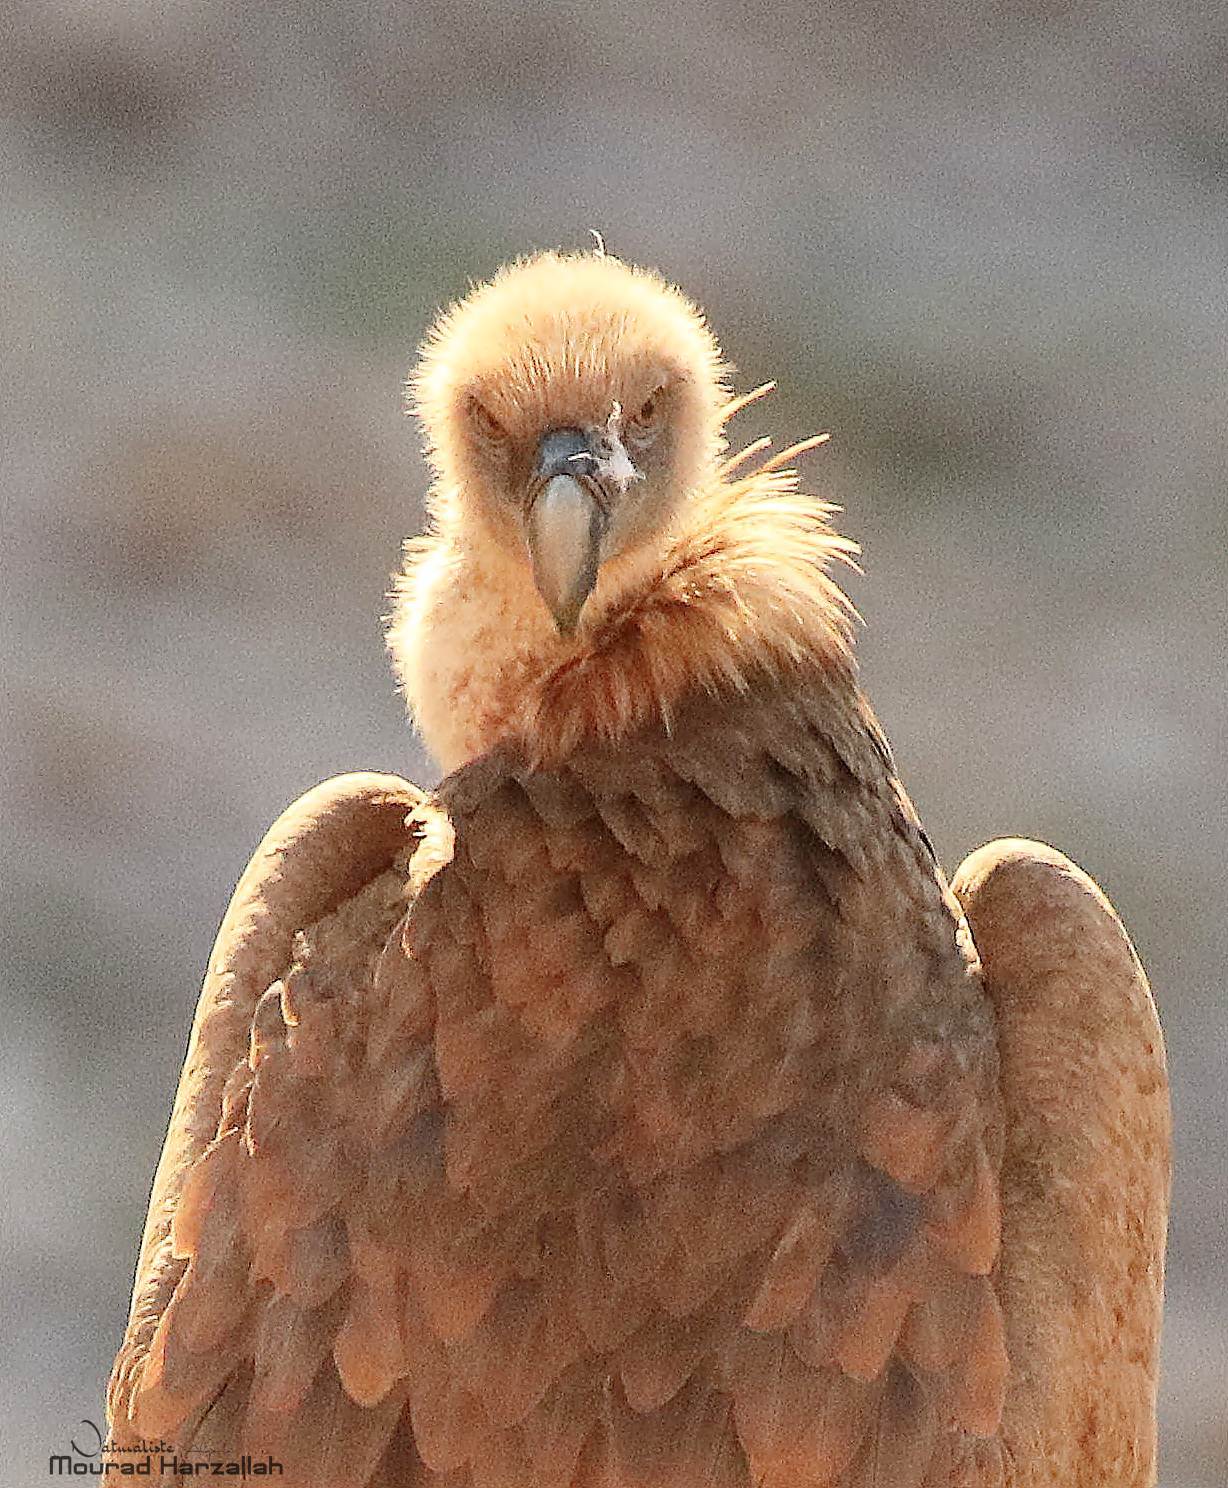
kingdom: Animalia
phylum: Chordata
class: Aves
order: Accipitriformes
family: Accipitridae
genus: Gyps
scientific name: Gyps fulvus
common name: Griffon vulture
